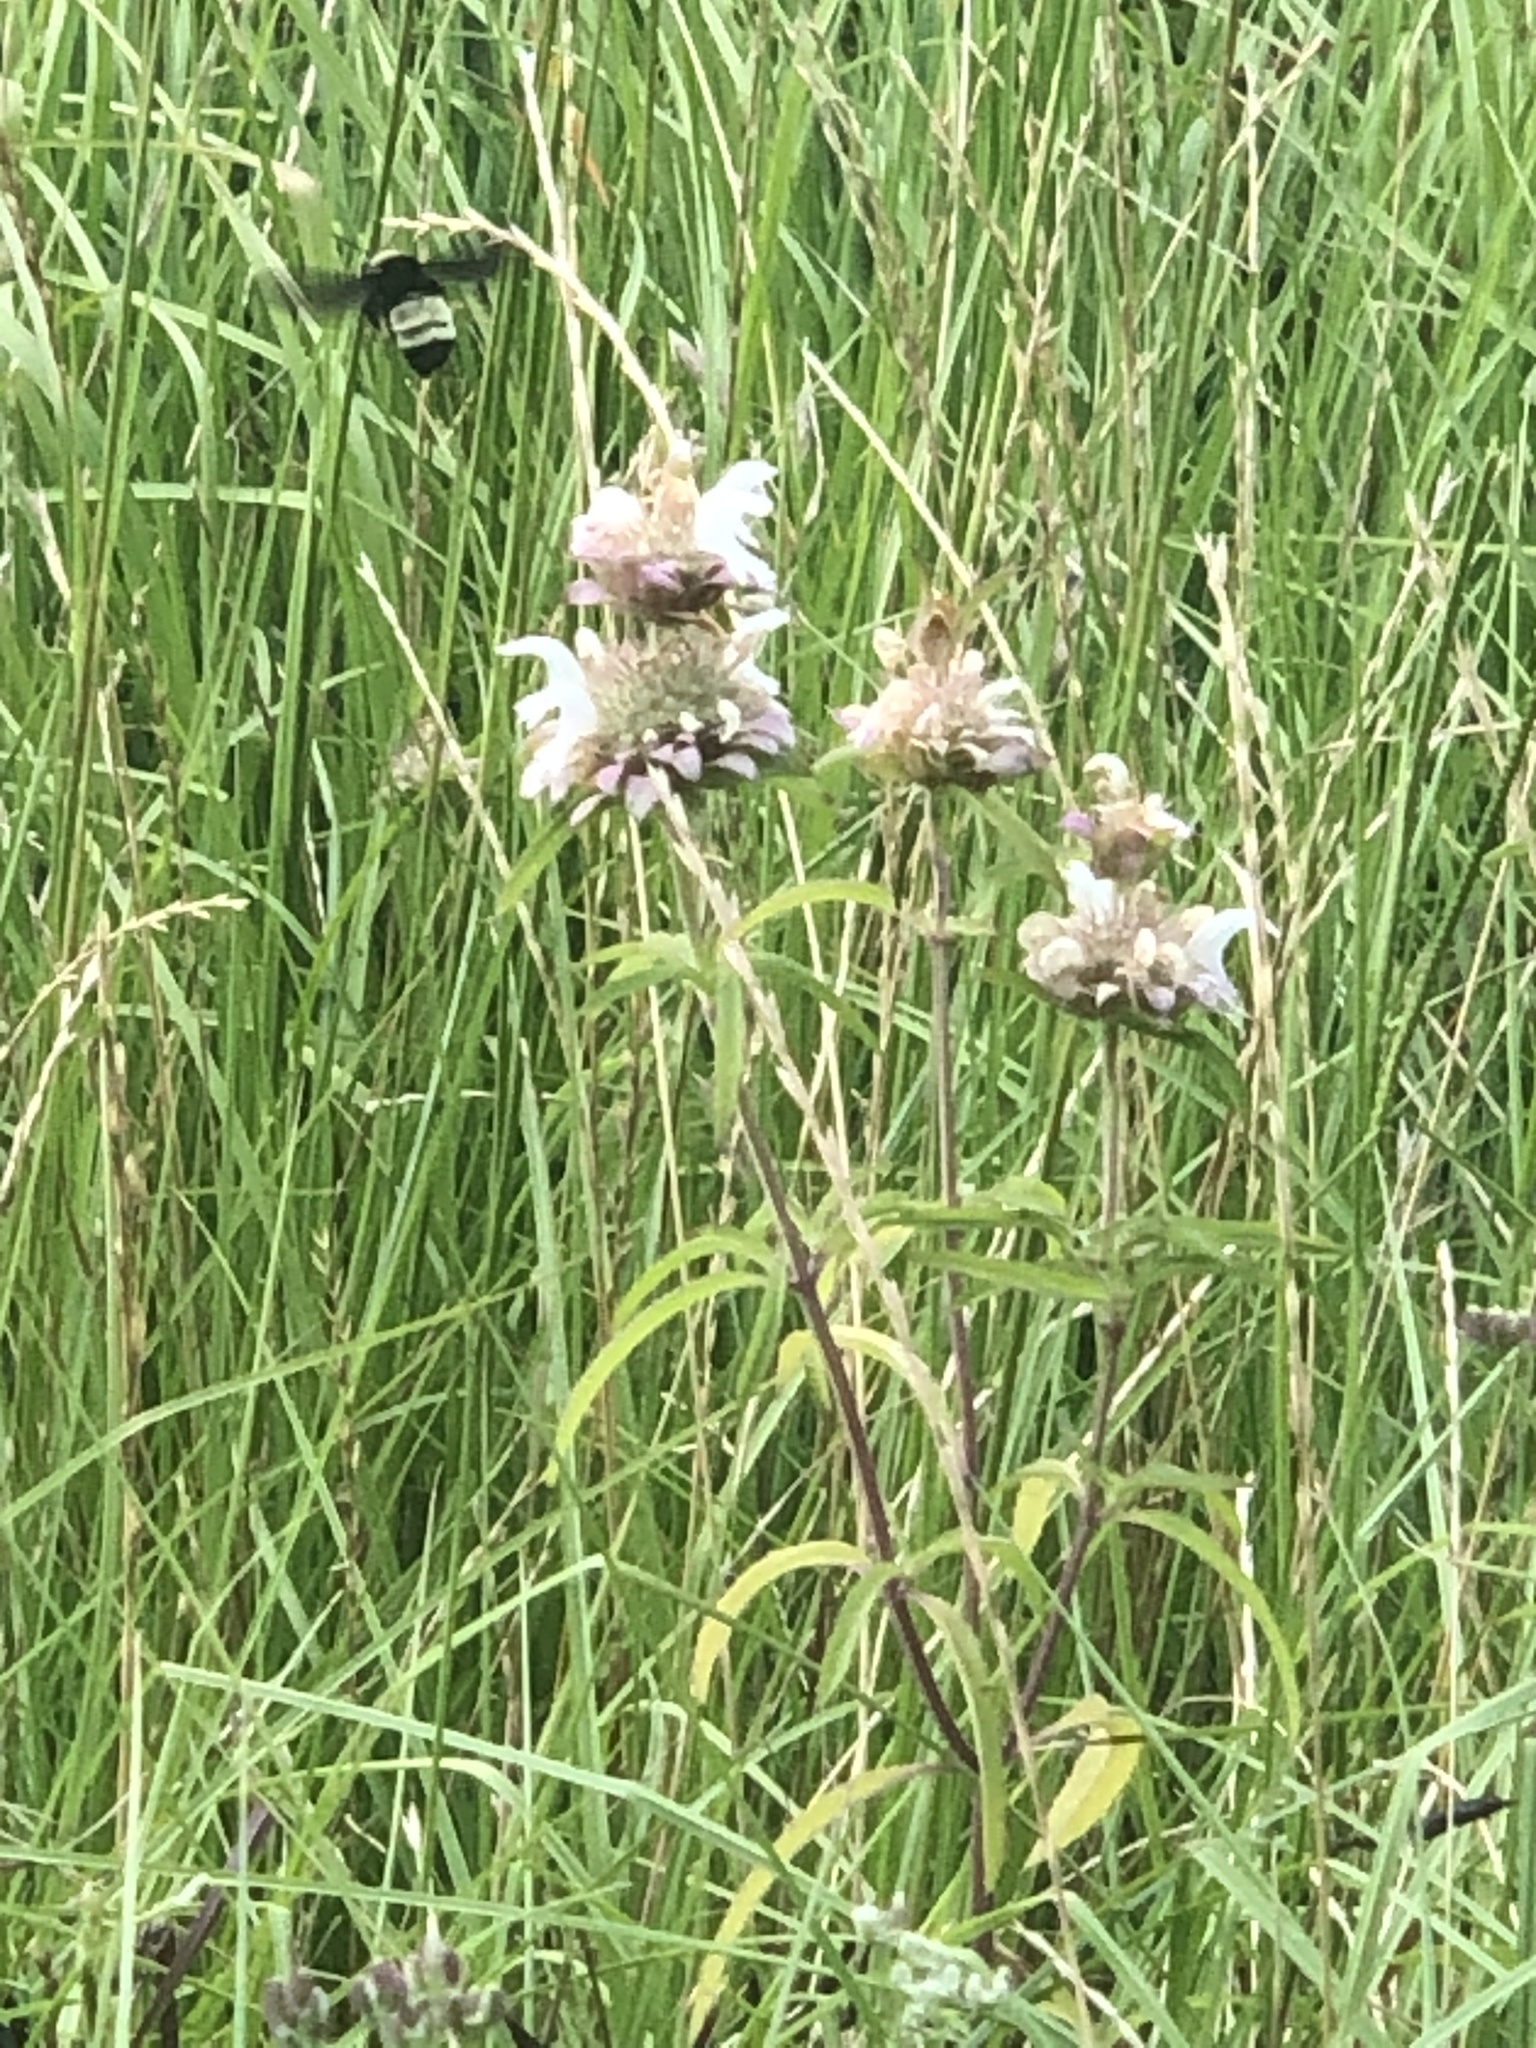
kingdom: Plantae
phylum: Tracheophyta
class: Magnoliopsida
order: Lamiales
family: Lamiaceae
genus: Monarda
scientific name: Monarda citriodora
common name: Lemon beebalm
